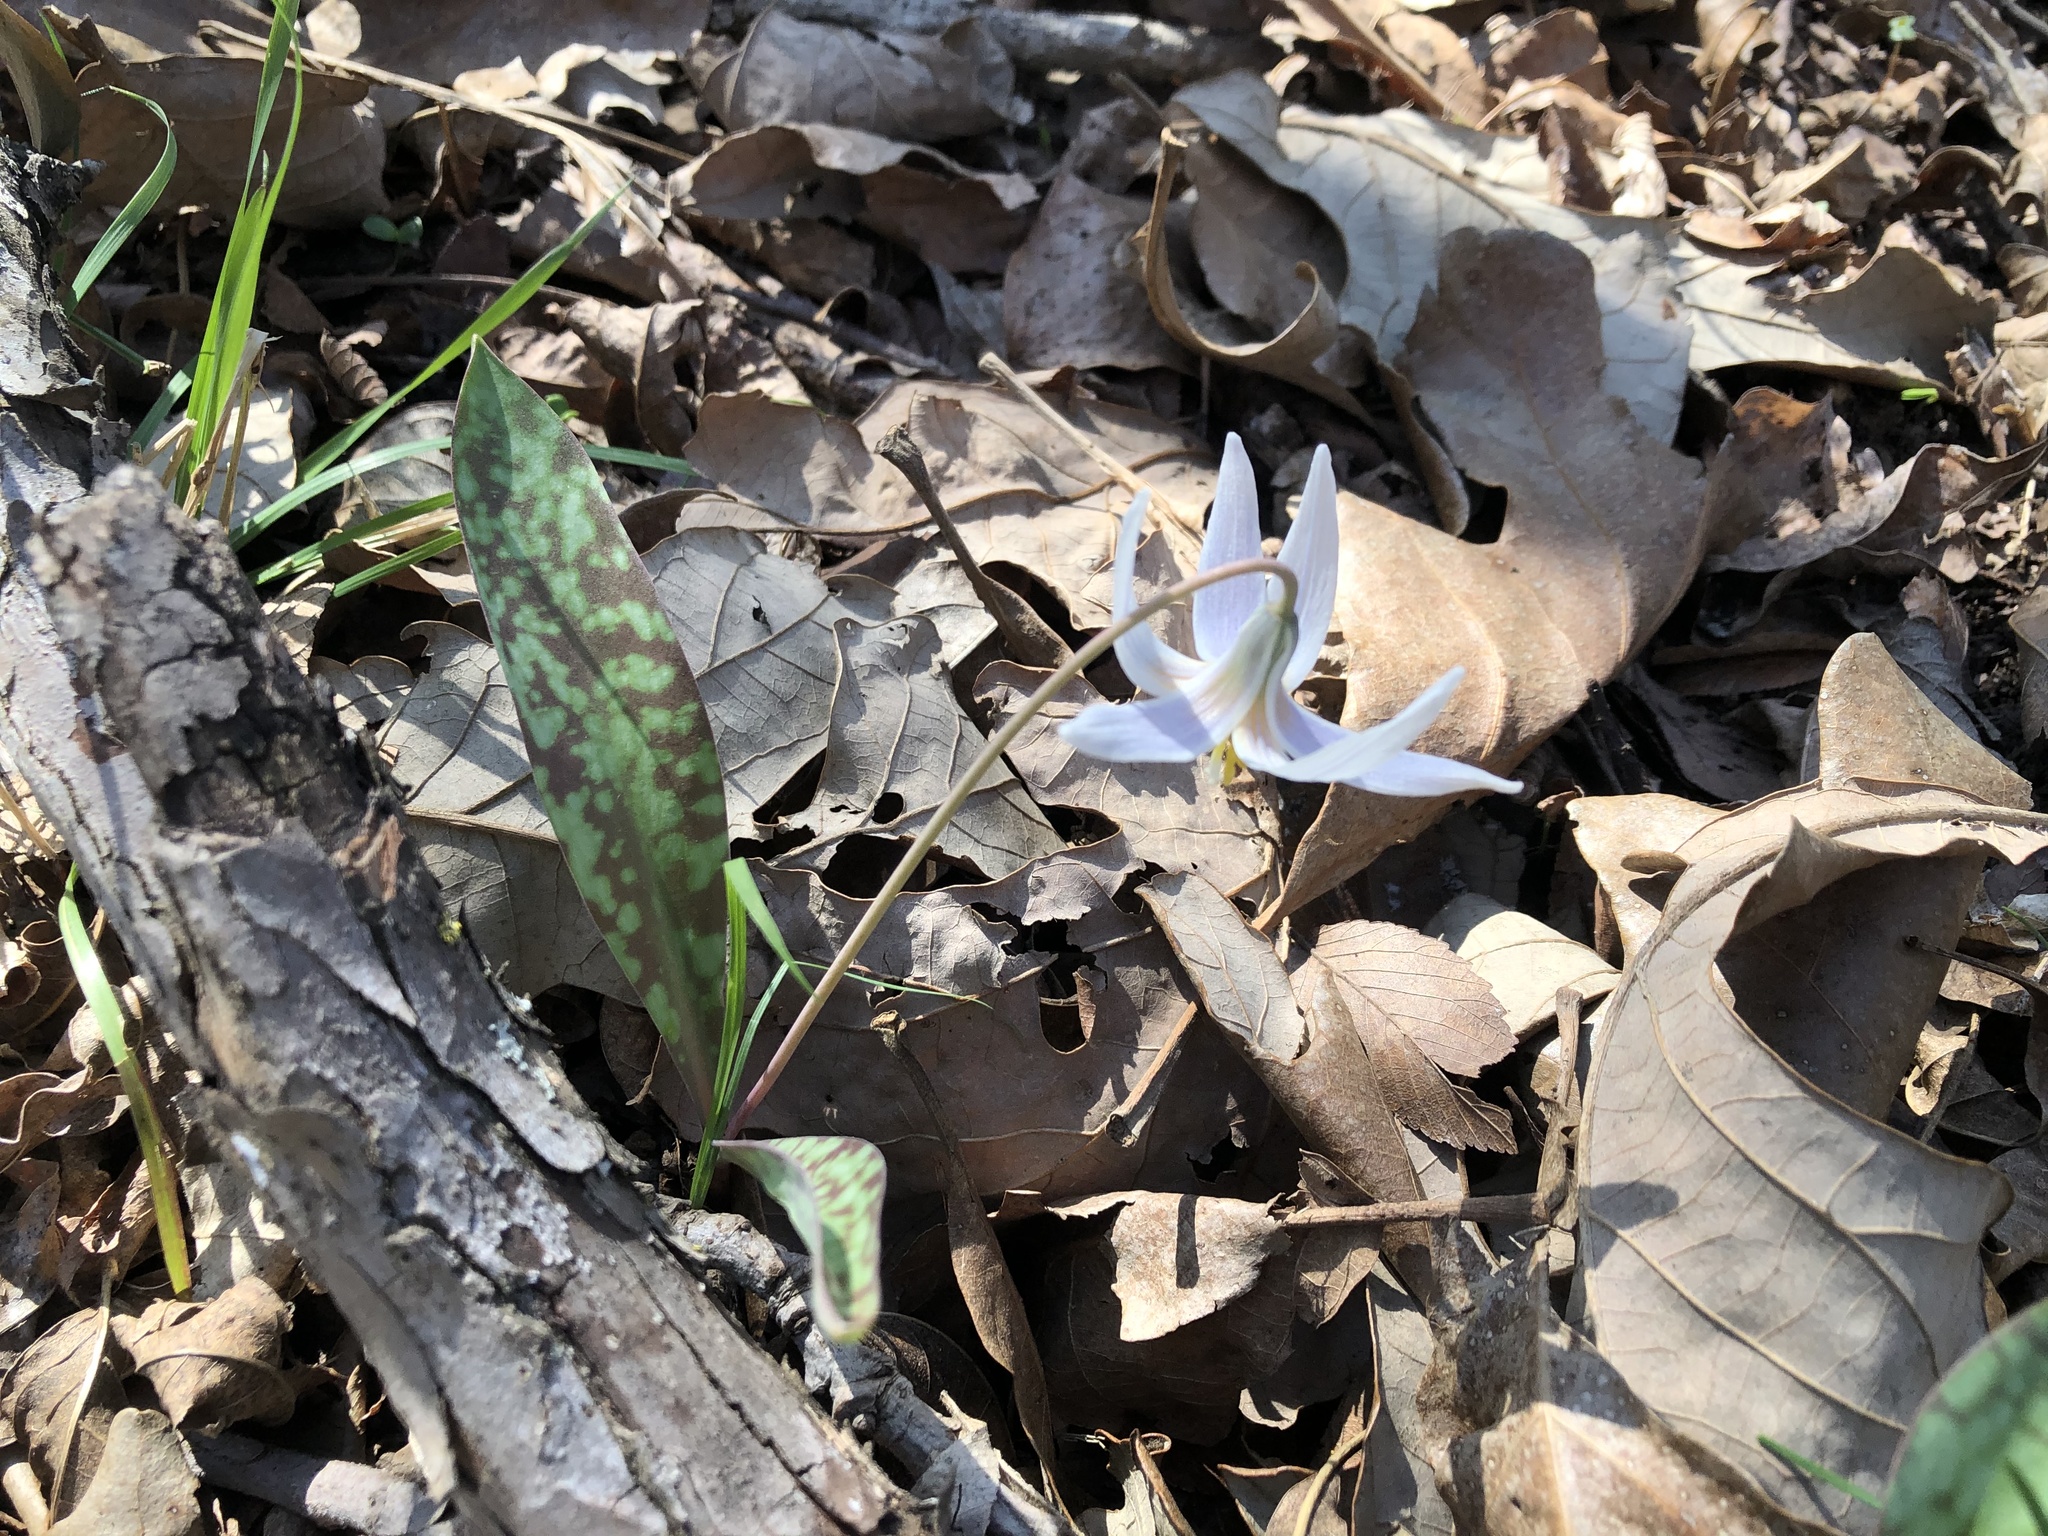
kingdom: Plantae
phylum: Tracheophyta
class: Liliopsida
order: Liliales
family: Liliaceae
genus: Erythronium
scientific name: Erythronium albidum
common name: White trout-lily
